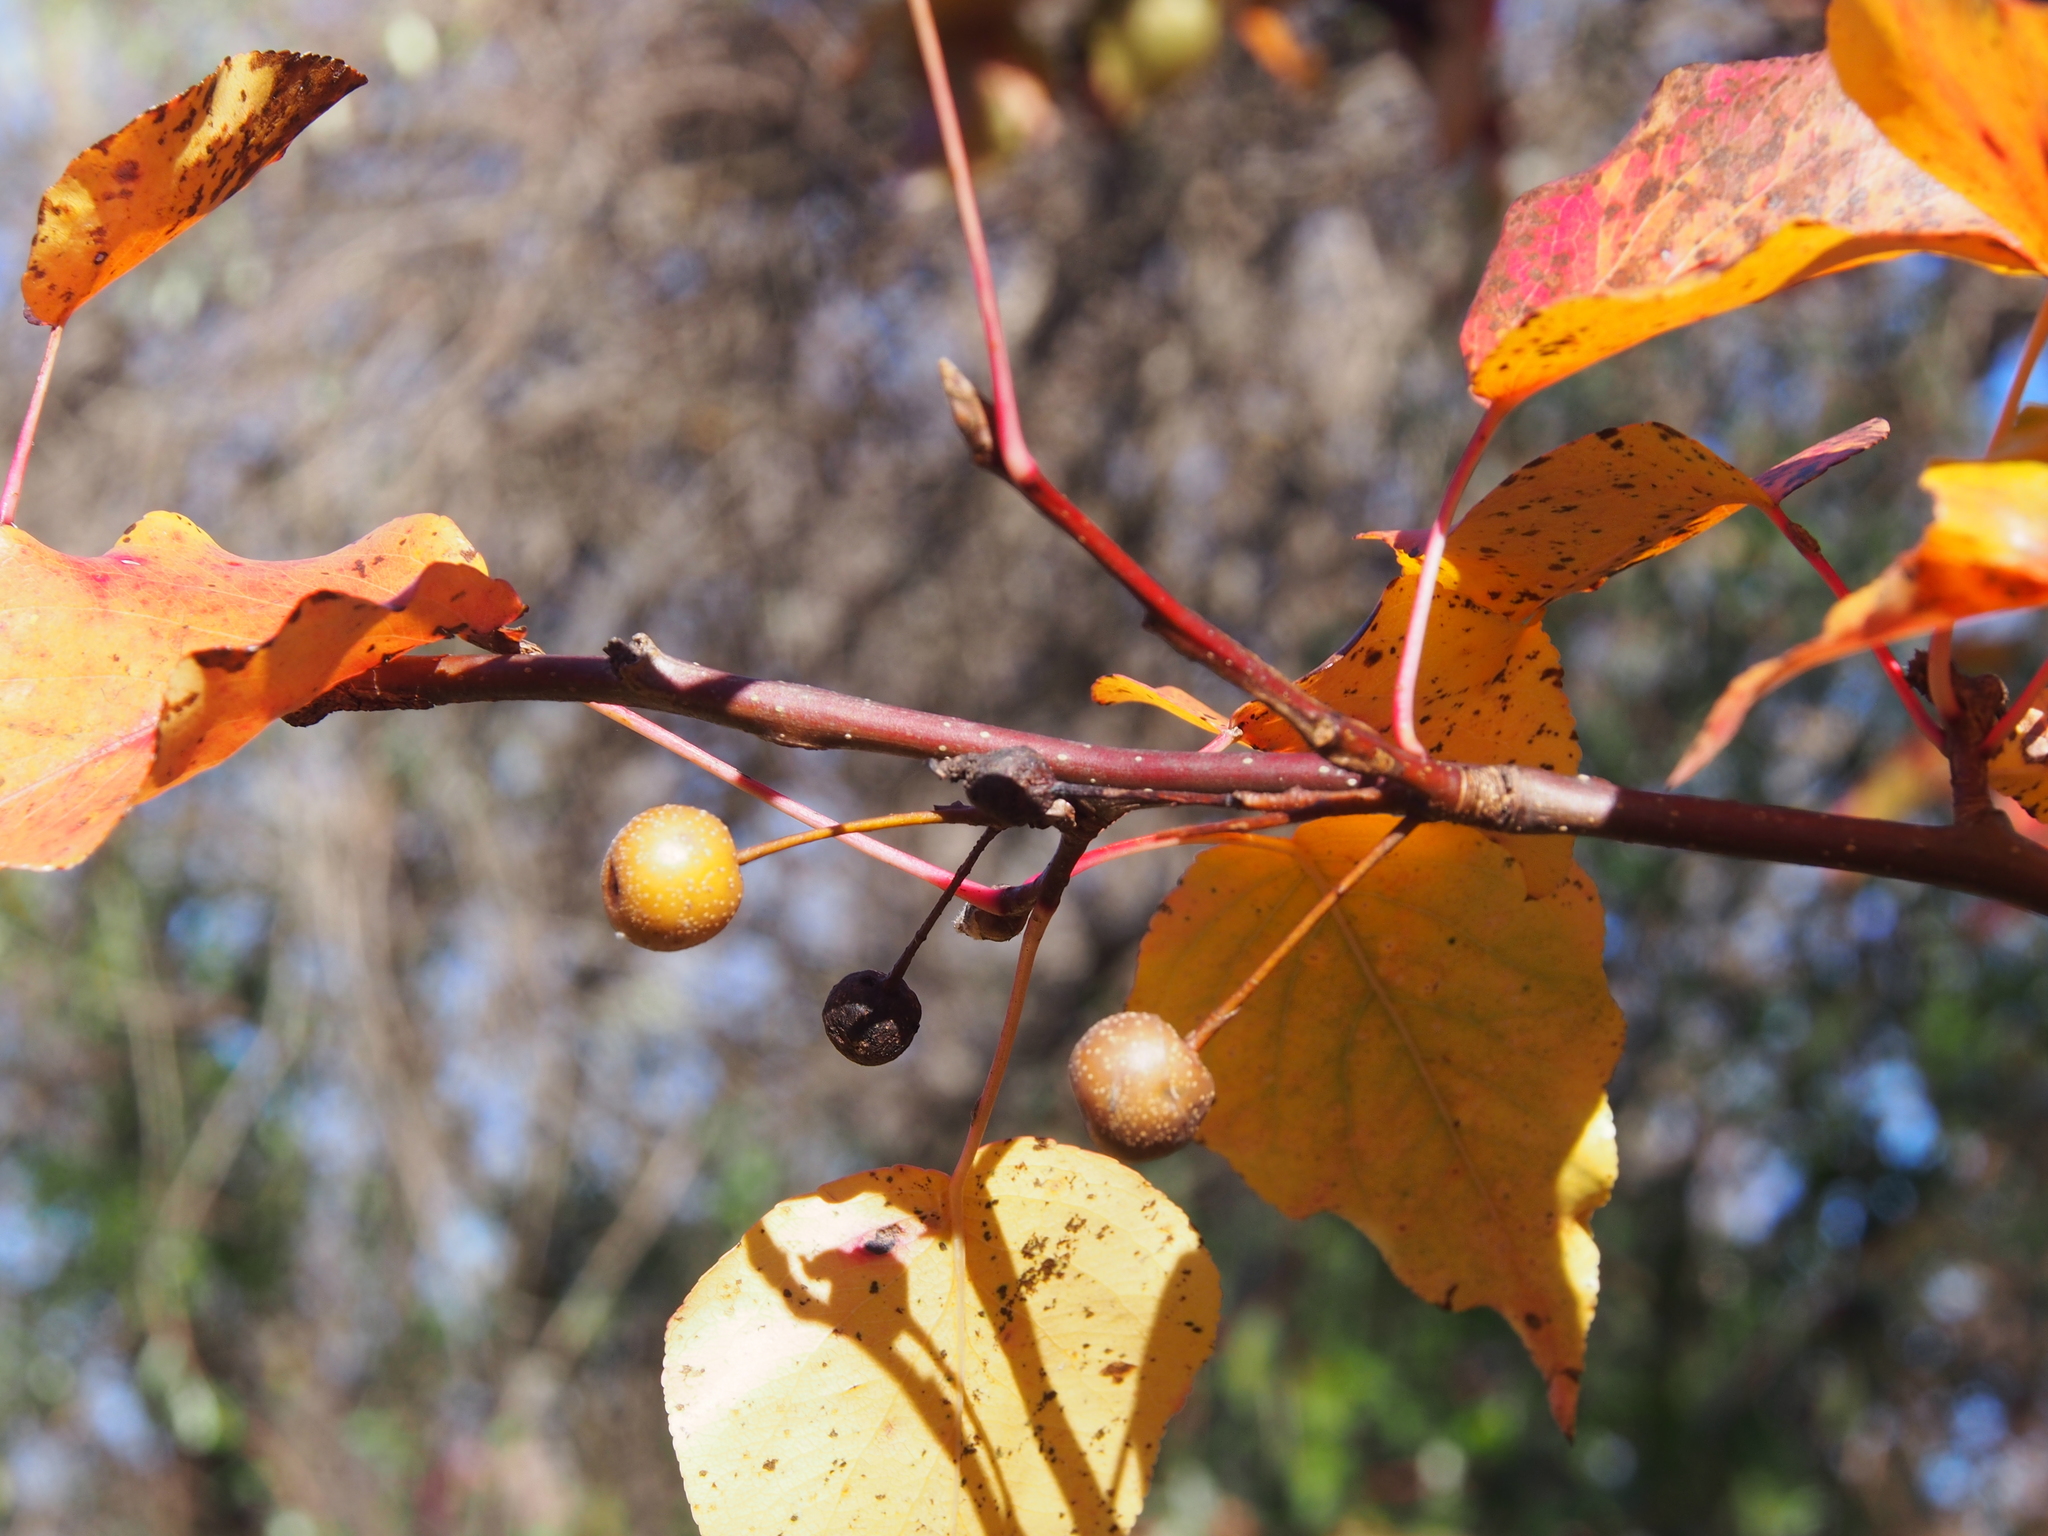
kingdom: Plantae
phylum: Tracheophyta
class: Magnoliopsida
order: Rosales
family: Rosaceae
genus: Pyrus
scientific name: Pyrus calleryana
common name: Callery pear
